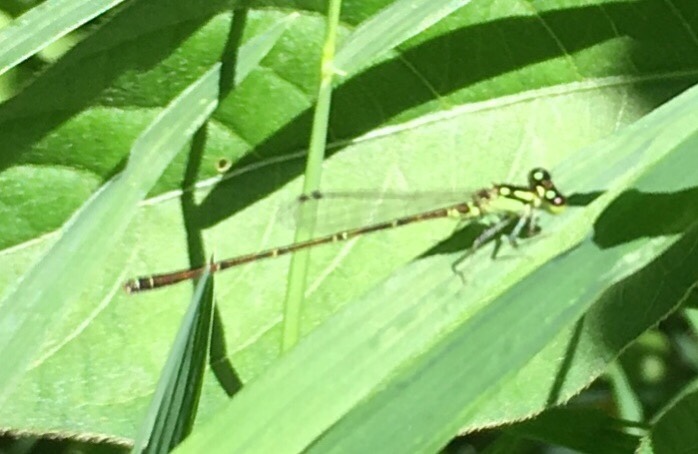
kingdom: Animalia
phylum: Arthropoda
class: Insecta
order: Odonata
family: Coenagrionidae
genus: Ischnura
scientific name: Ischnura posita
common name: Fragile forktail
